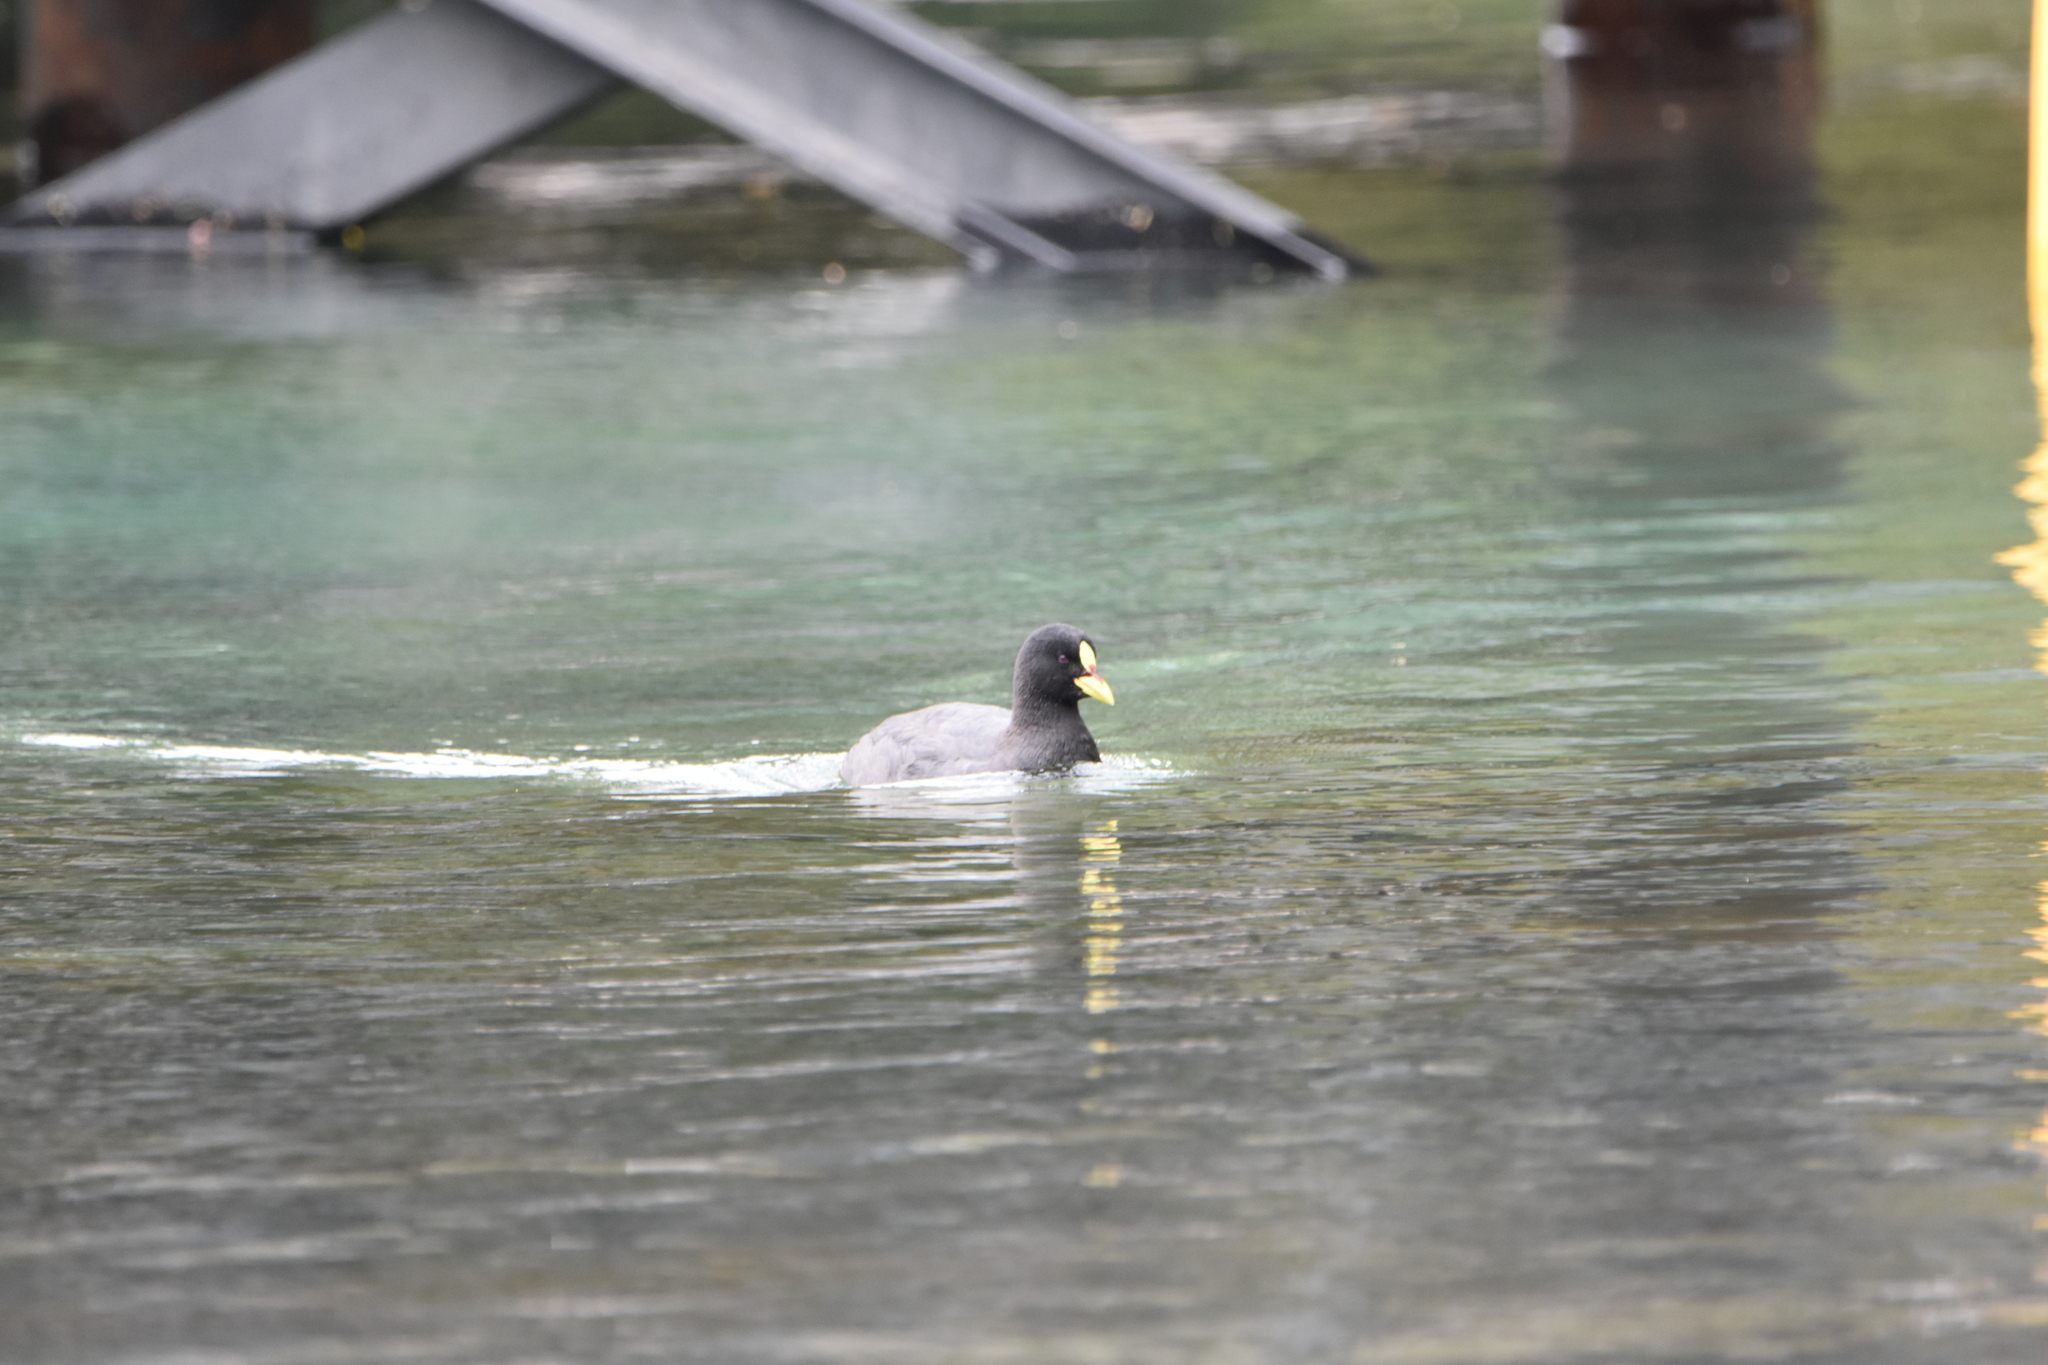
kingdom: Animalia
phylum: Chordata
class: Aves
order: Gruiformes
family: Rallidae
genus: Fulica
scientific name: Fulica armillata
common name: Red-gartered coot
